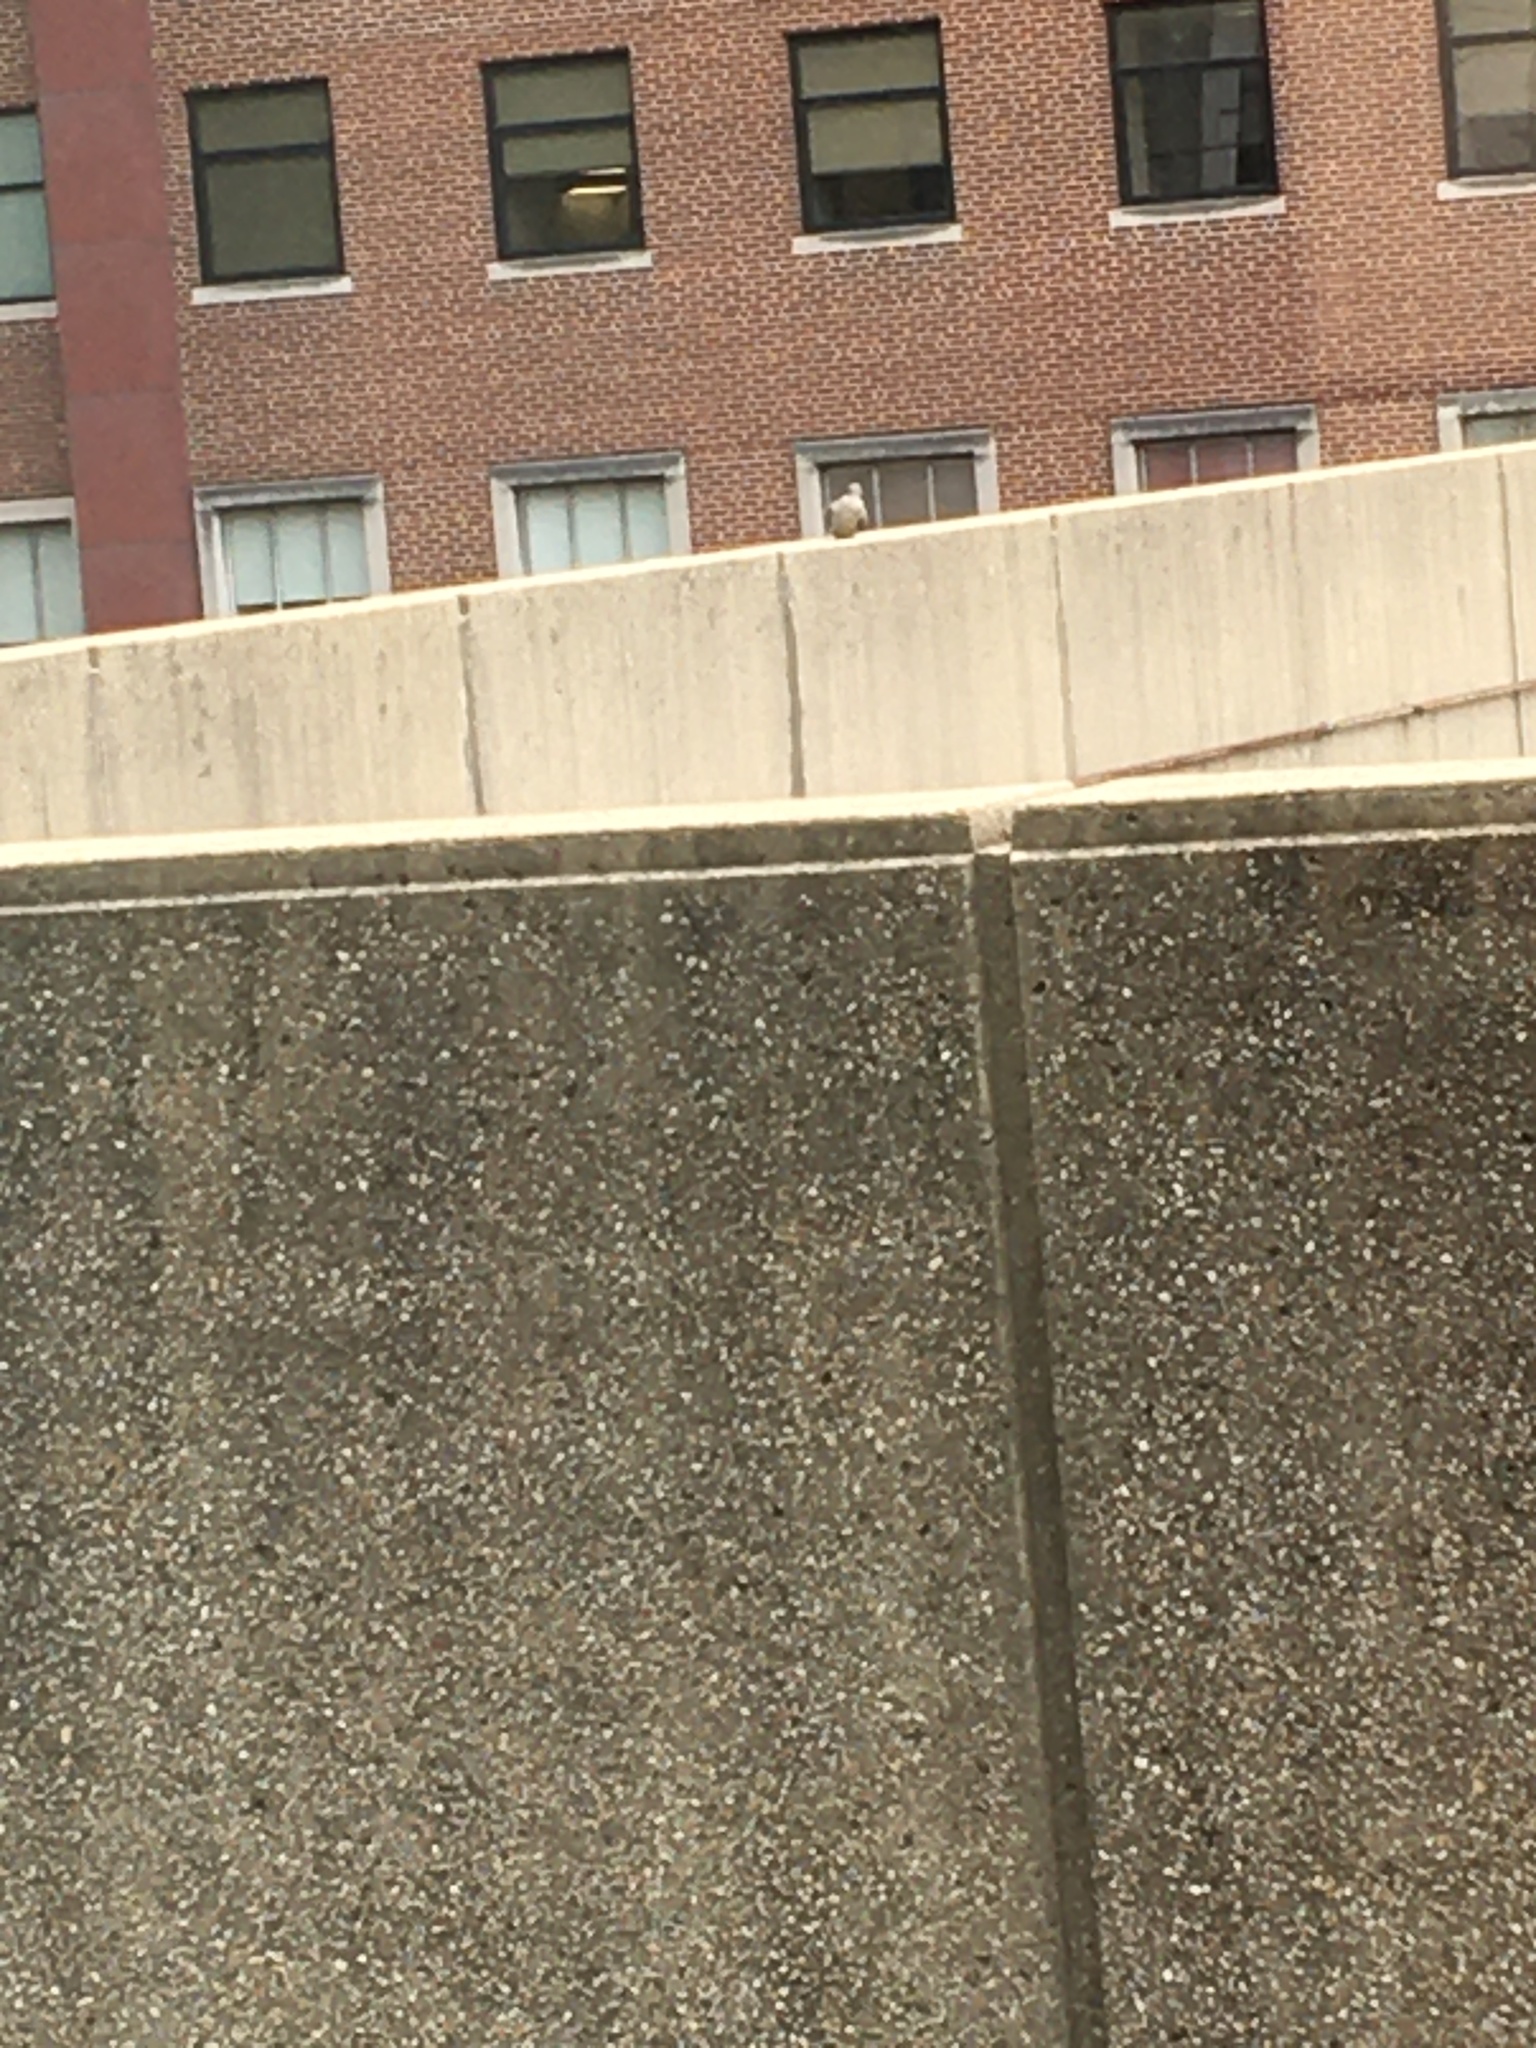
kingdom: Animalia
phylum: Chordata
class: Aves
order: Columbiformes
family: Columbidae
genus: Zenaida
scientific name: Zenaida macroura
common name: Mourning dove
